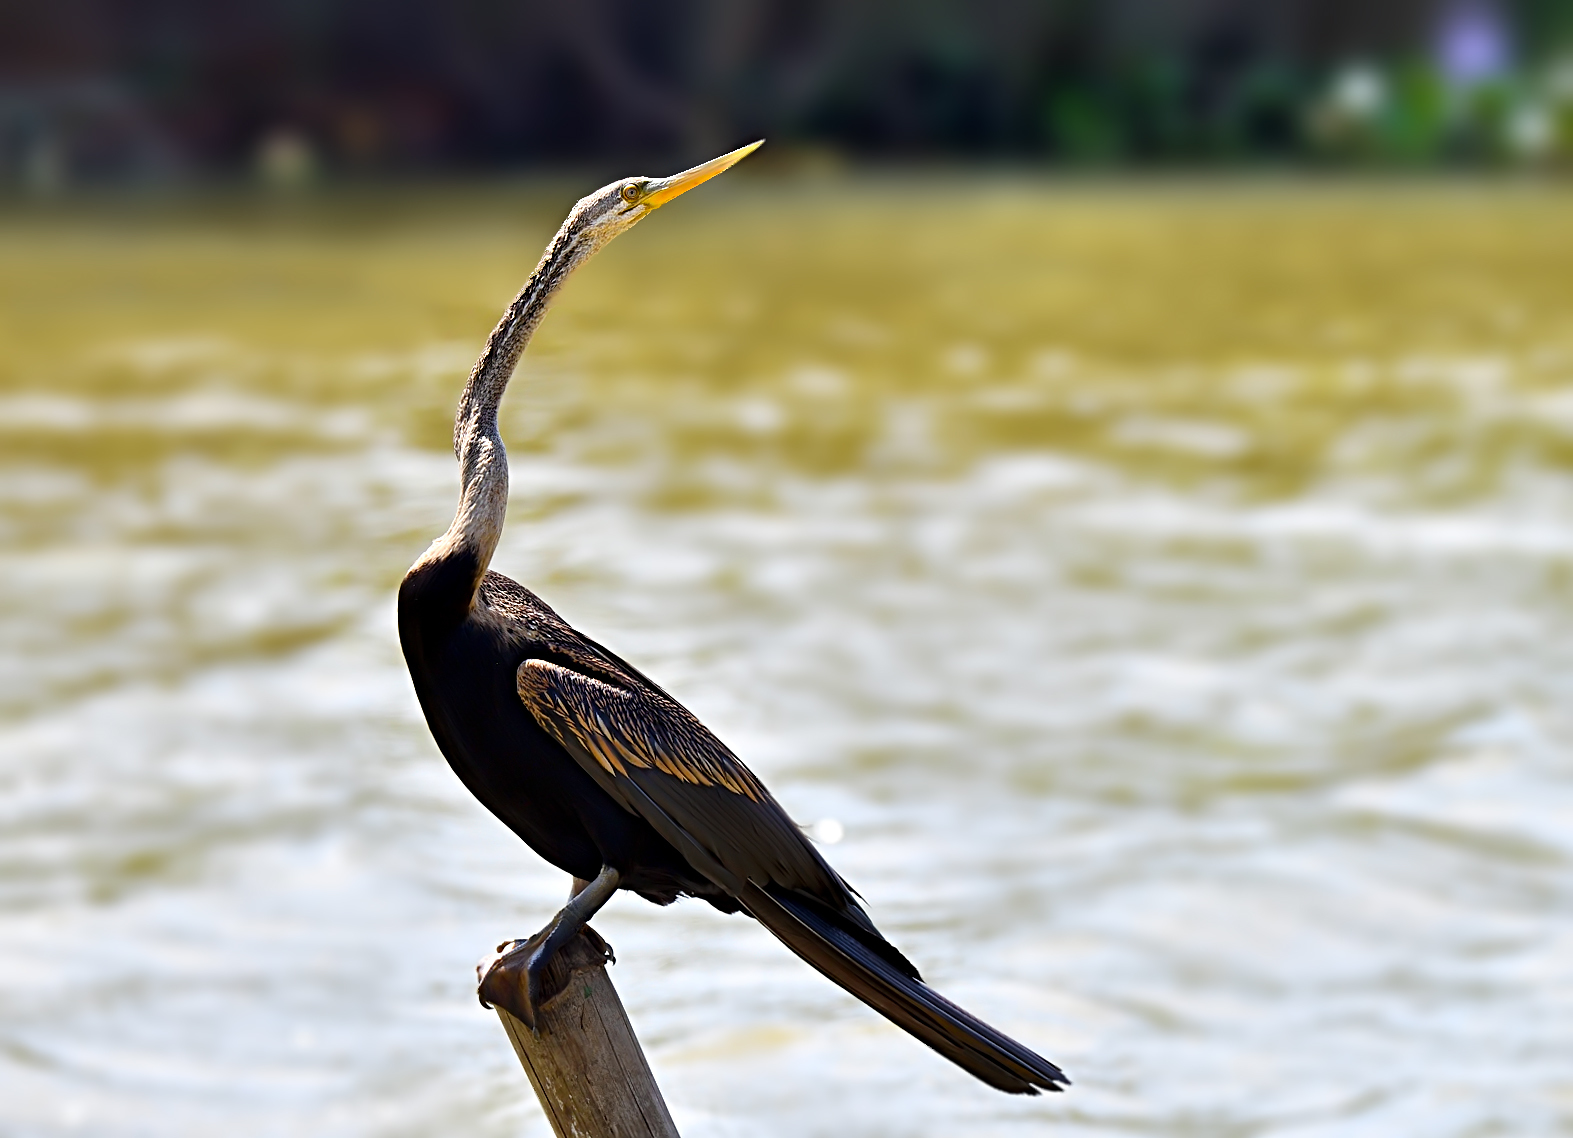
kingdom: Animalia
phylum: Chordata
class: Aves
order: Suliformes
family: Anhingidae
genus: Anhinga
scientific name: Anhinga melanogaster
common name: Oriental darter
